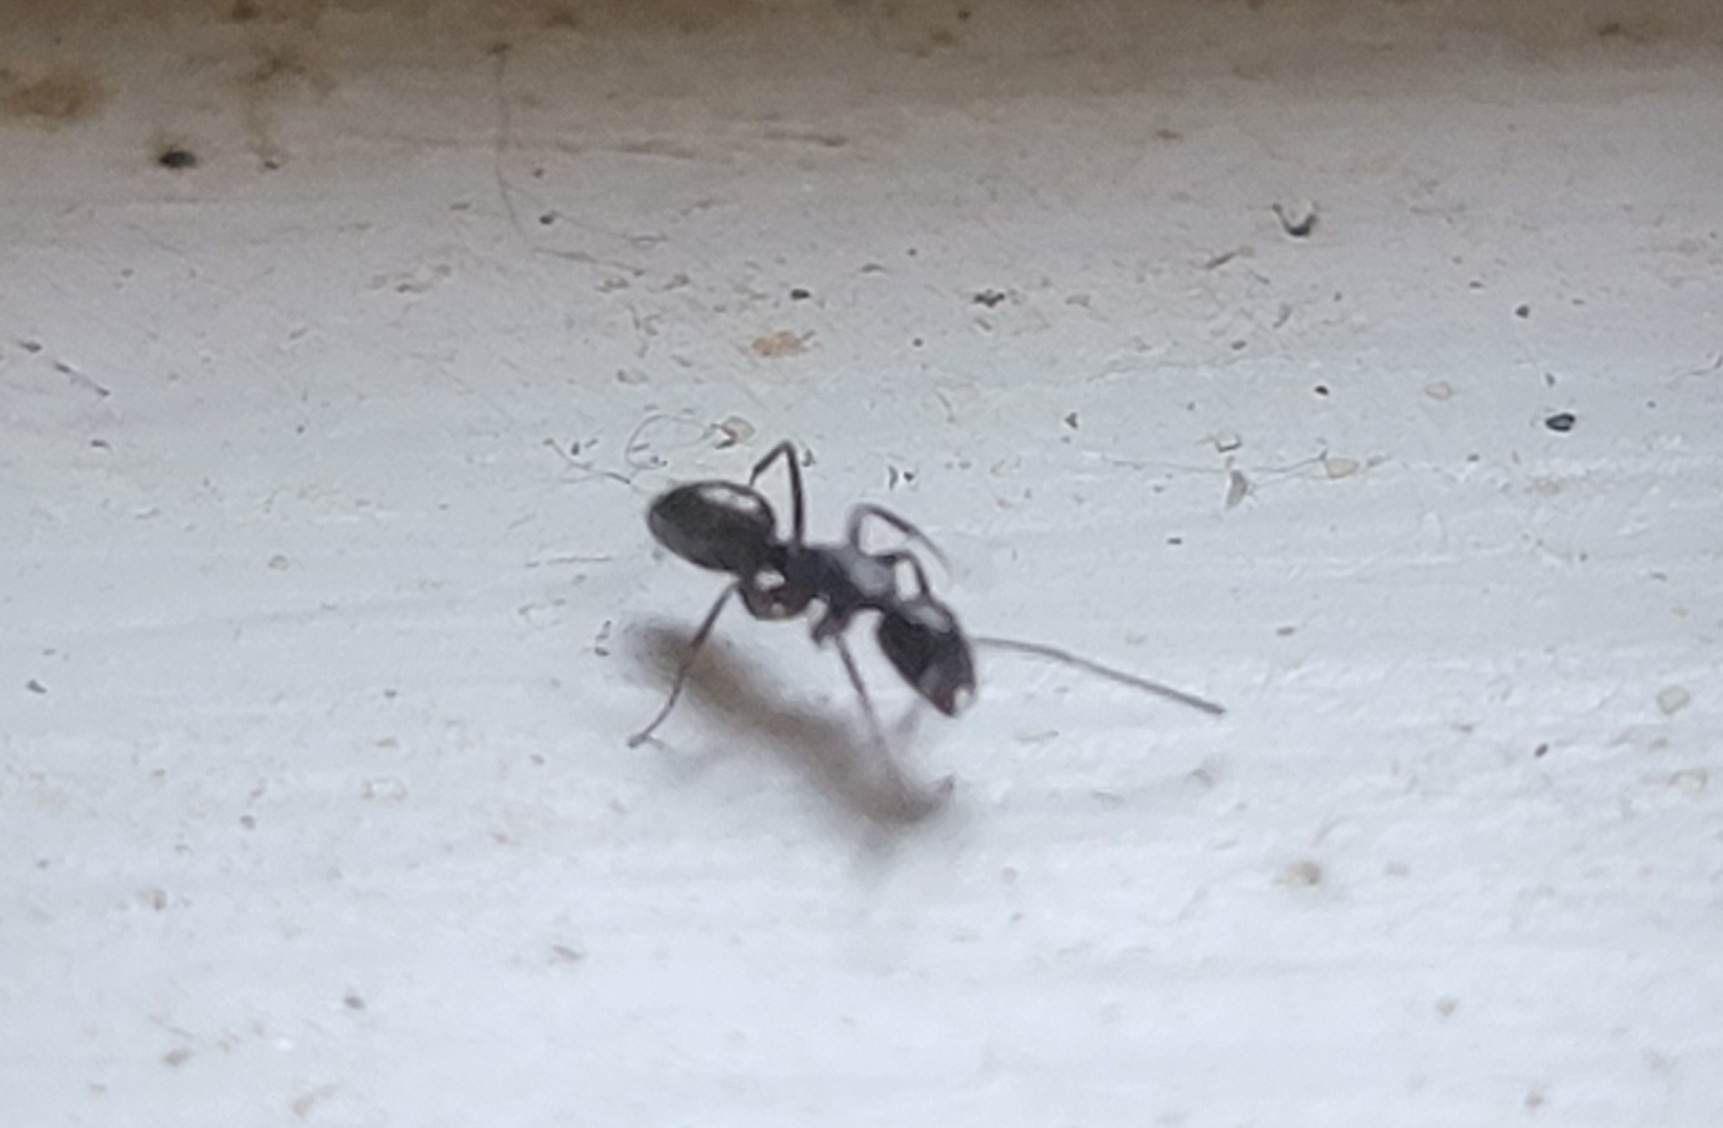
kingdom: Animalia
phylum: Arthropoda
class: Insecta
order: Hymenoptera
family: Formicidae
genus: Myrmentoma
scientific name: Myrmentoma
